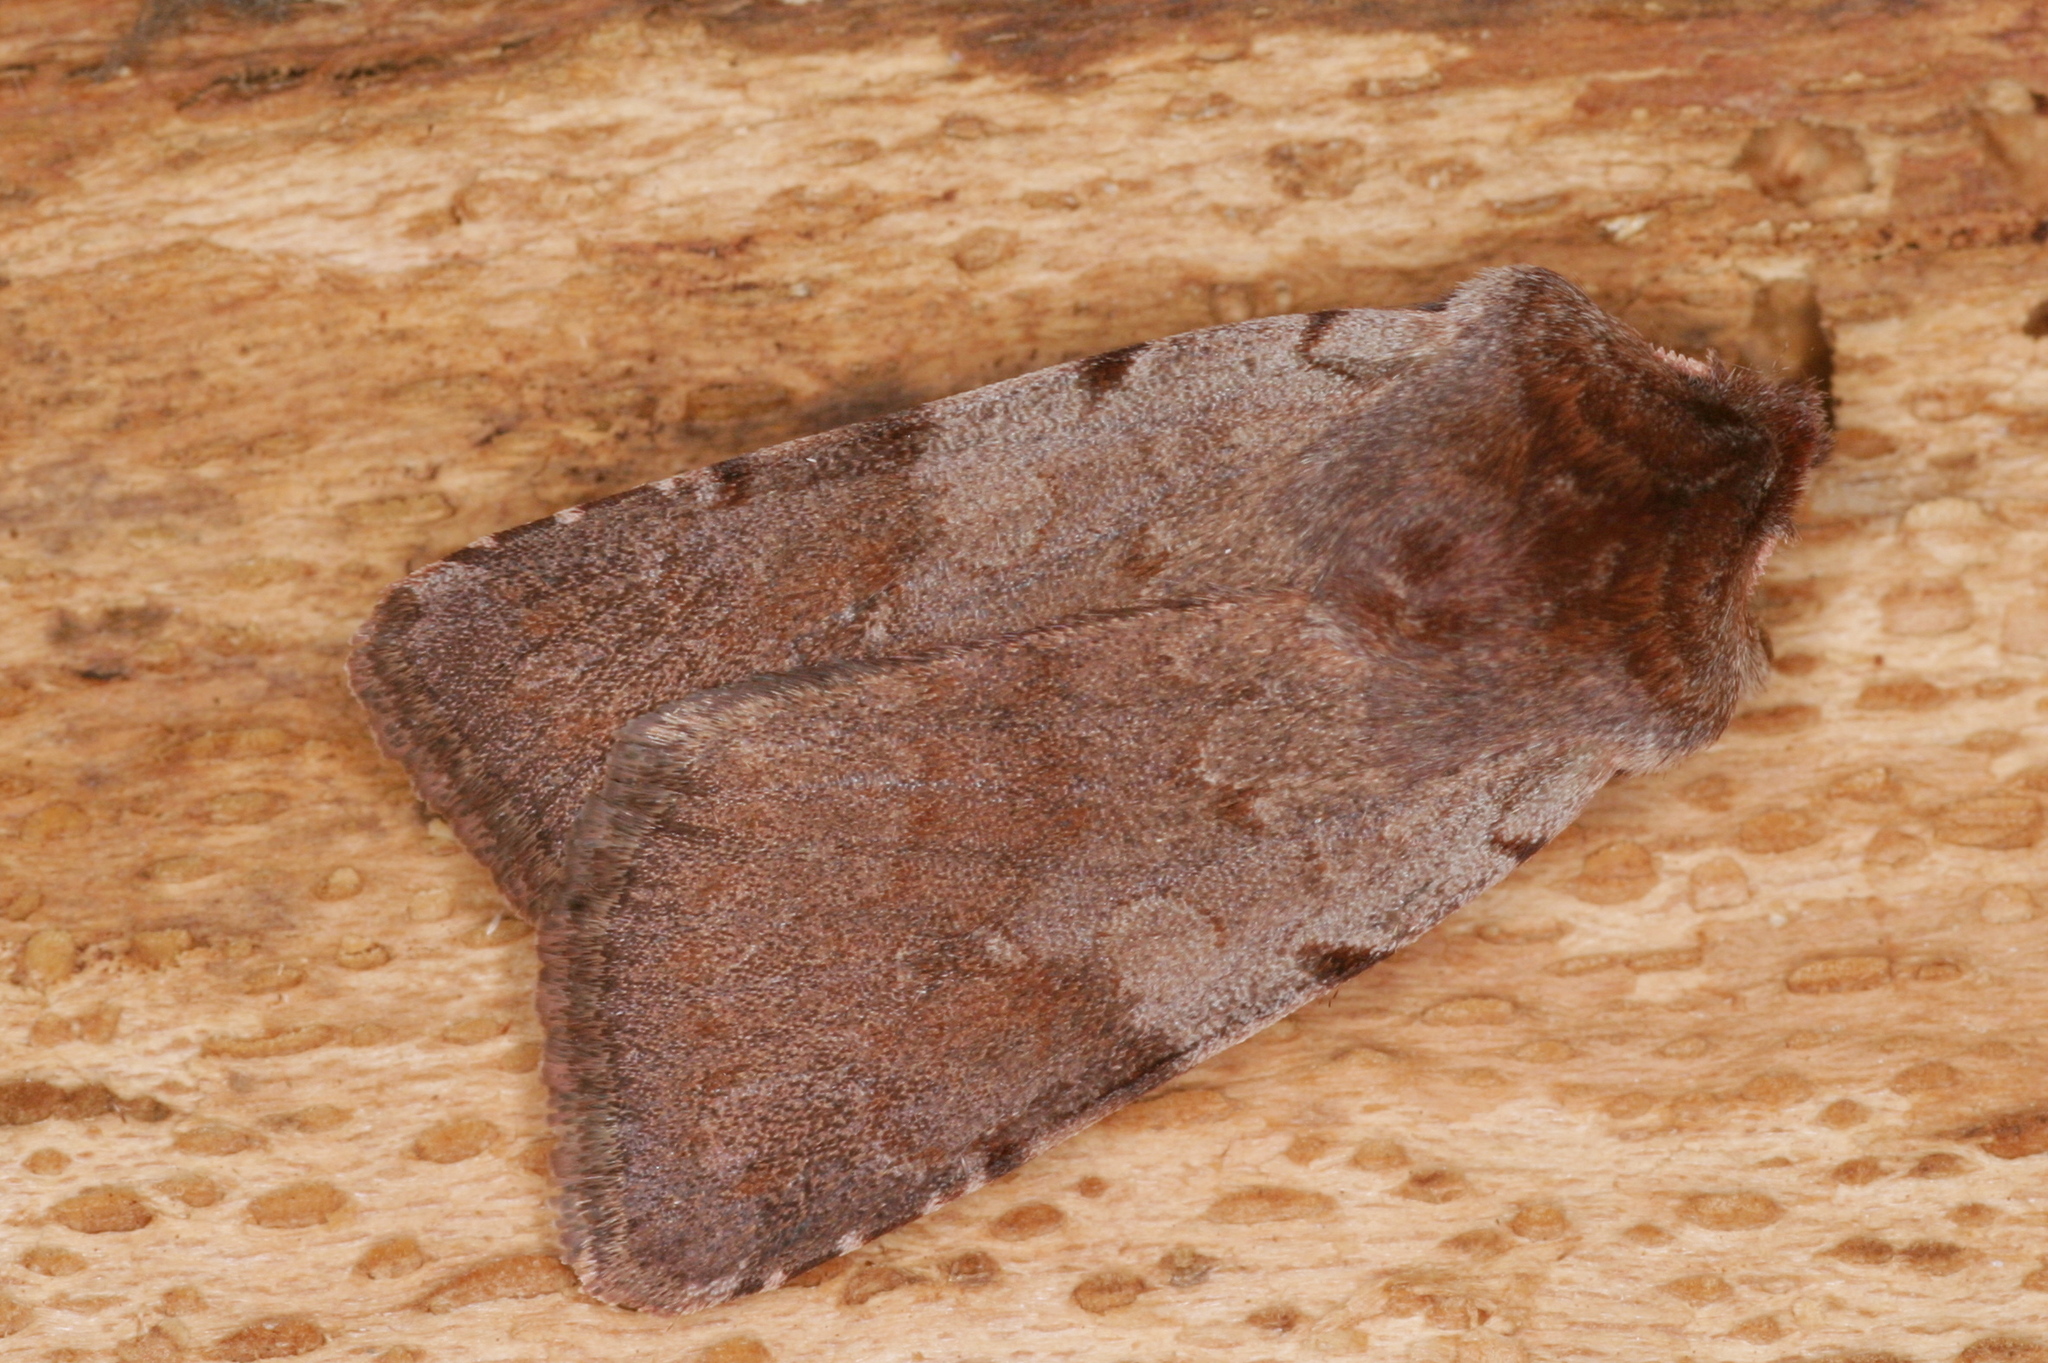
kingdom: Animalia
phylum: Arthropoda
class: Insecta
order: Lepidoptera
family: Noctuidae
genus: Cerastis
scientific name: Cerastis rubricosa
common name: Red chestnut
